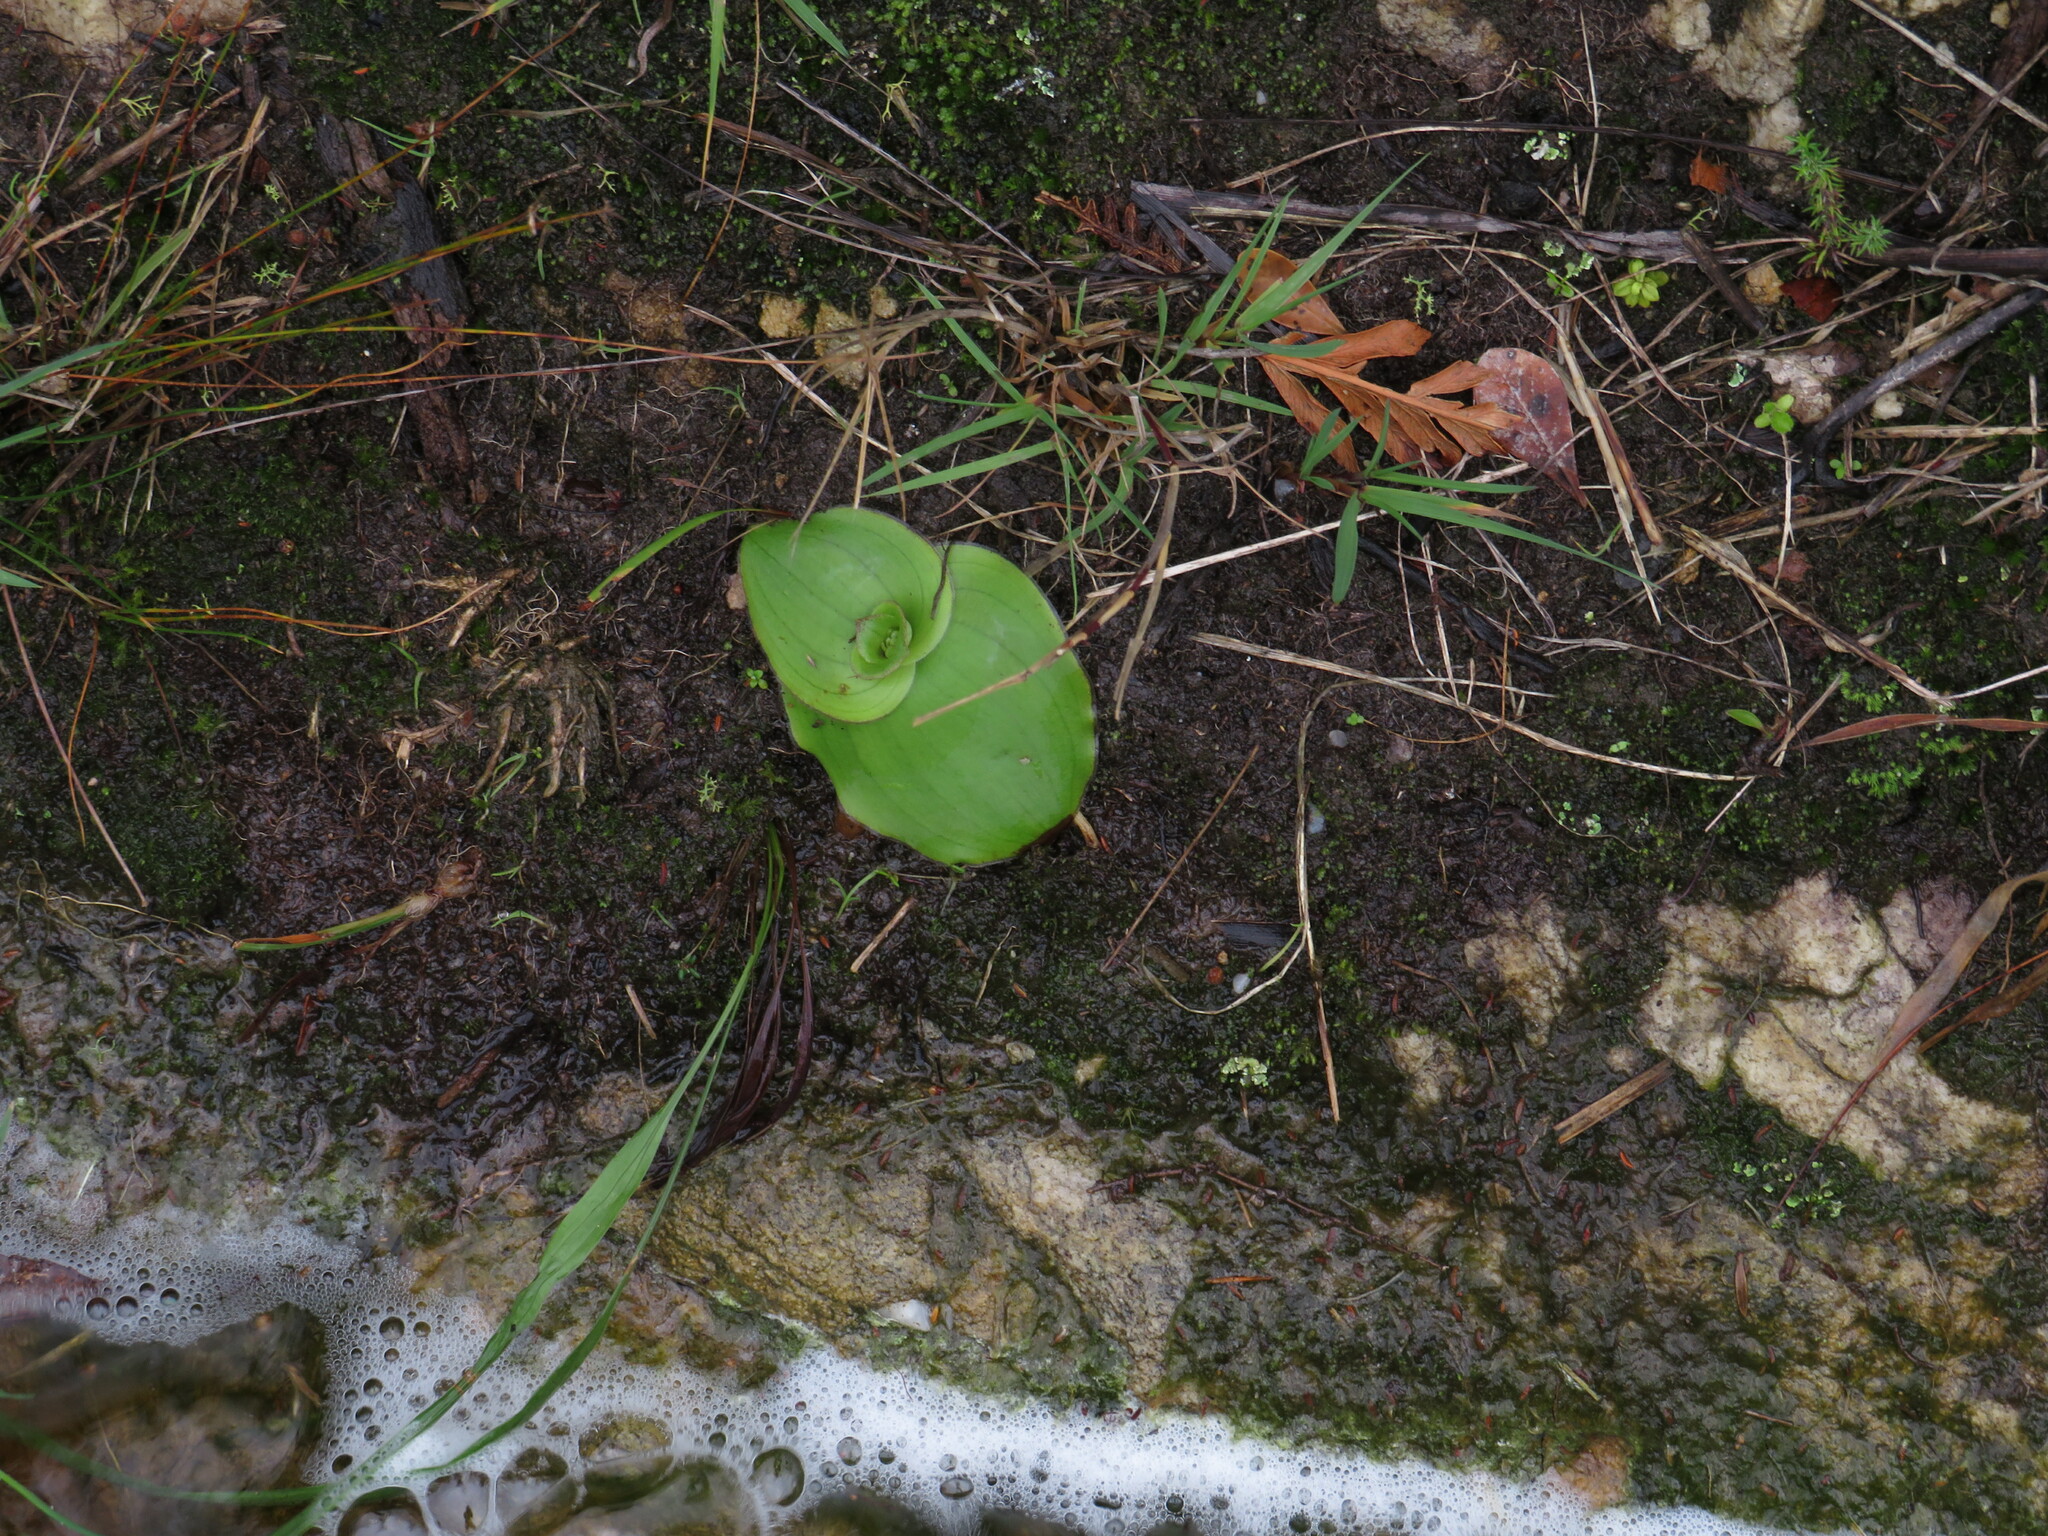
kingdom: Plantae
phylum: Tracheophyta
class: Liliopsida
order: Asparagales
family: Orchidaceae
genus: Satyrium
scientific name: Satyrium bicorne
